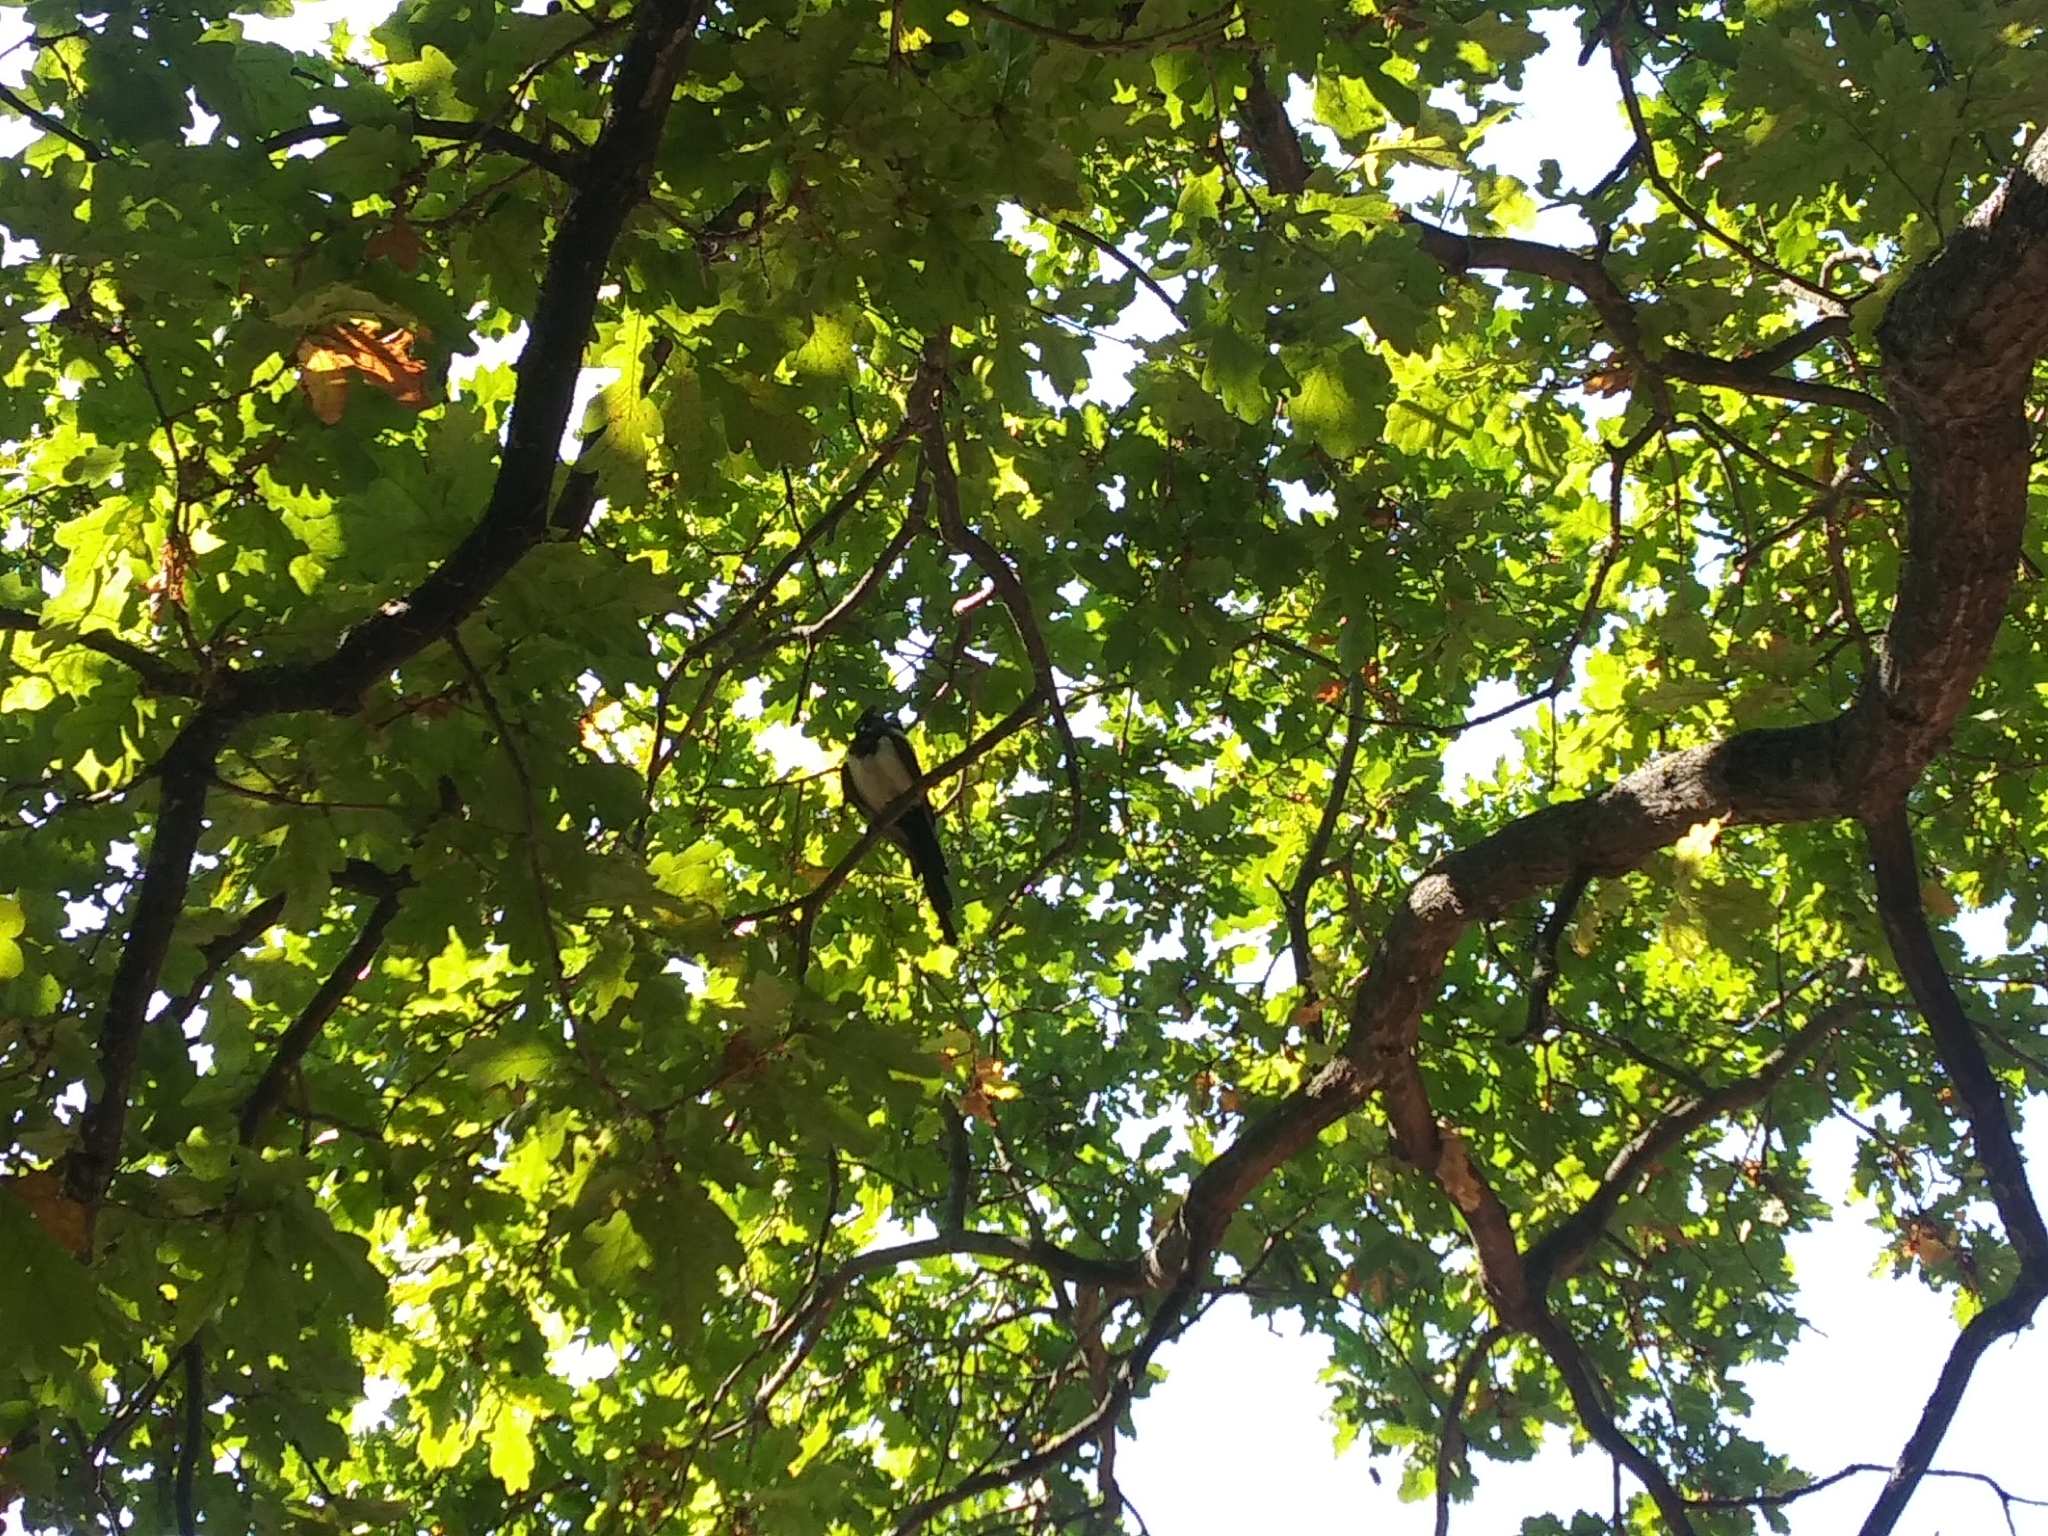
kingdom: Animalia
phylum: Chordata
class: Aves
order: Passeriformes
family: Corvidae
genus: Pica
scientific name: Pica pica
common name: Eurasian magpie
